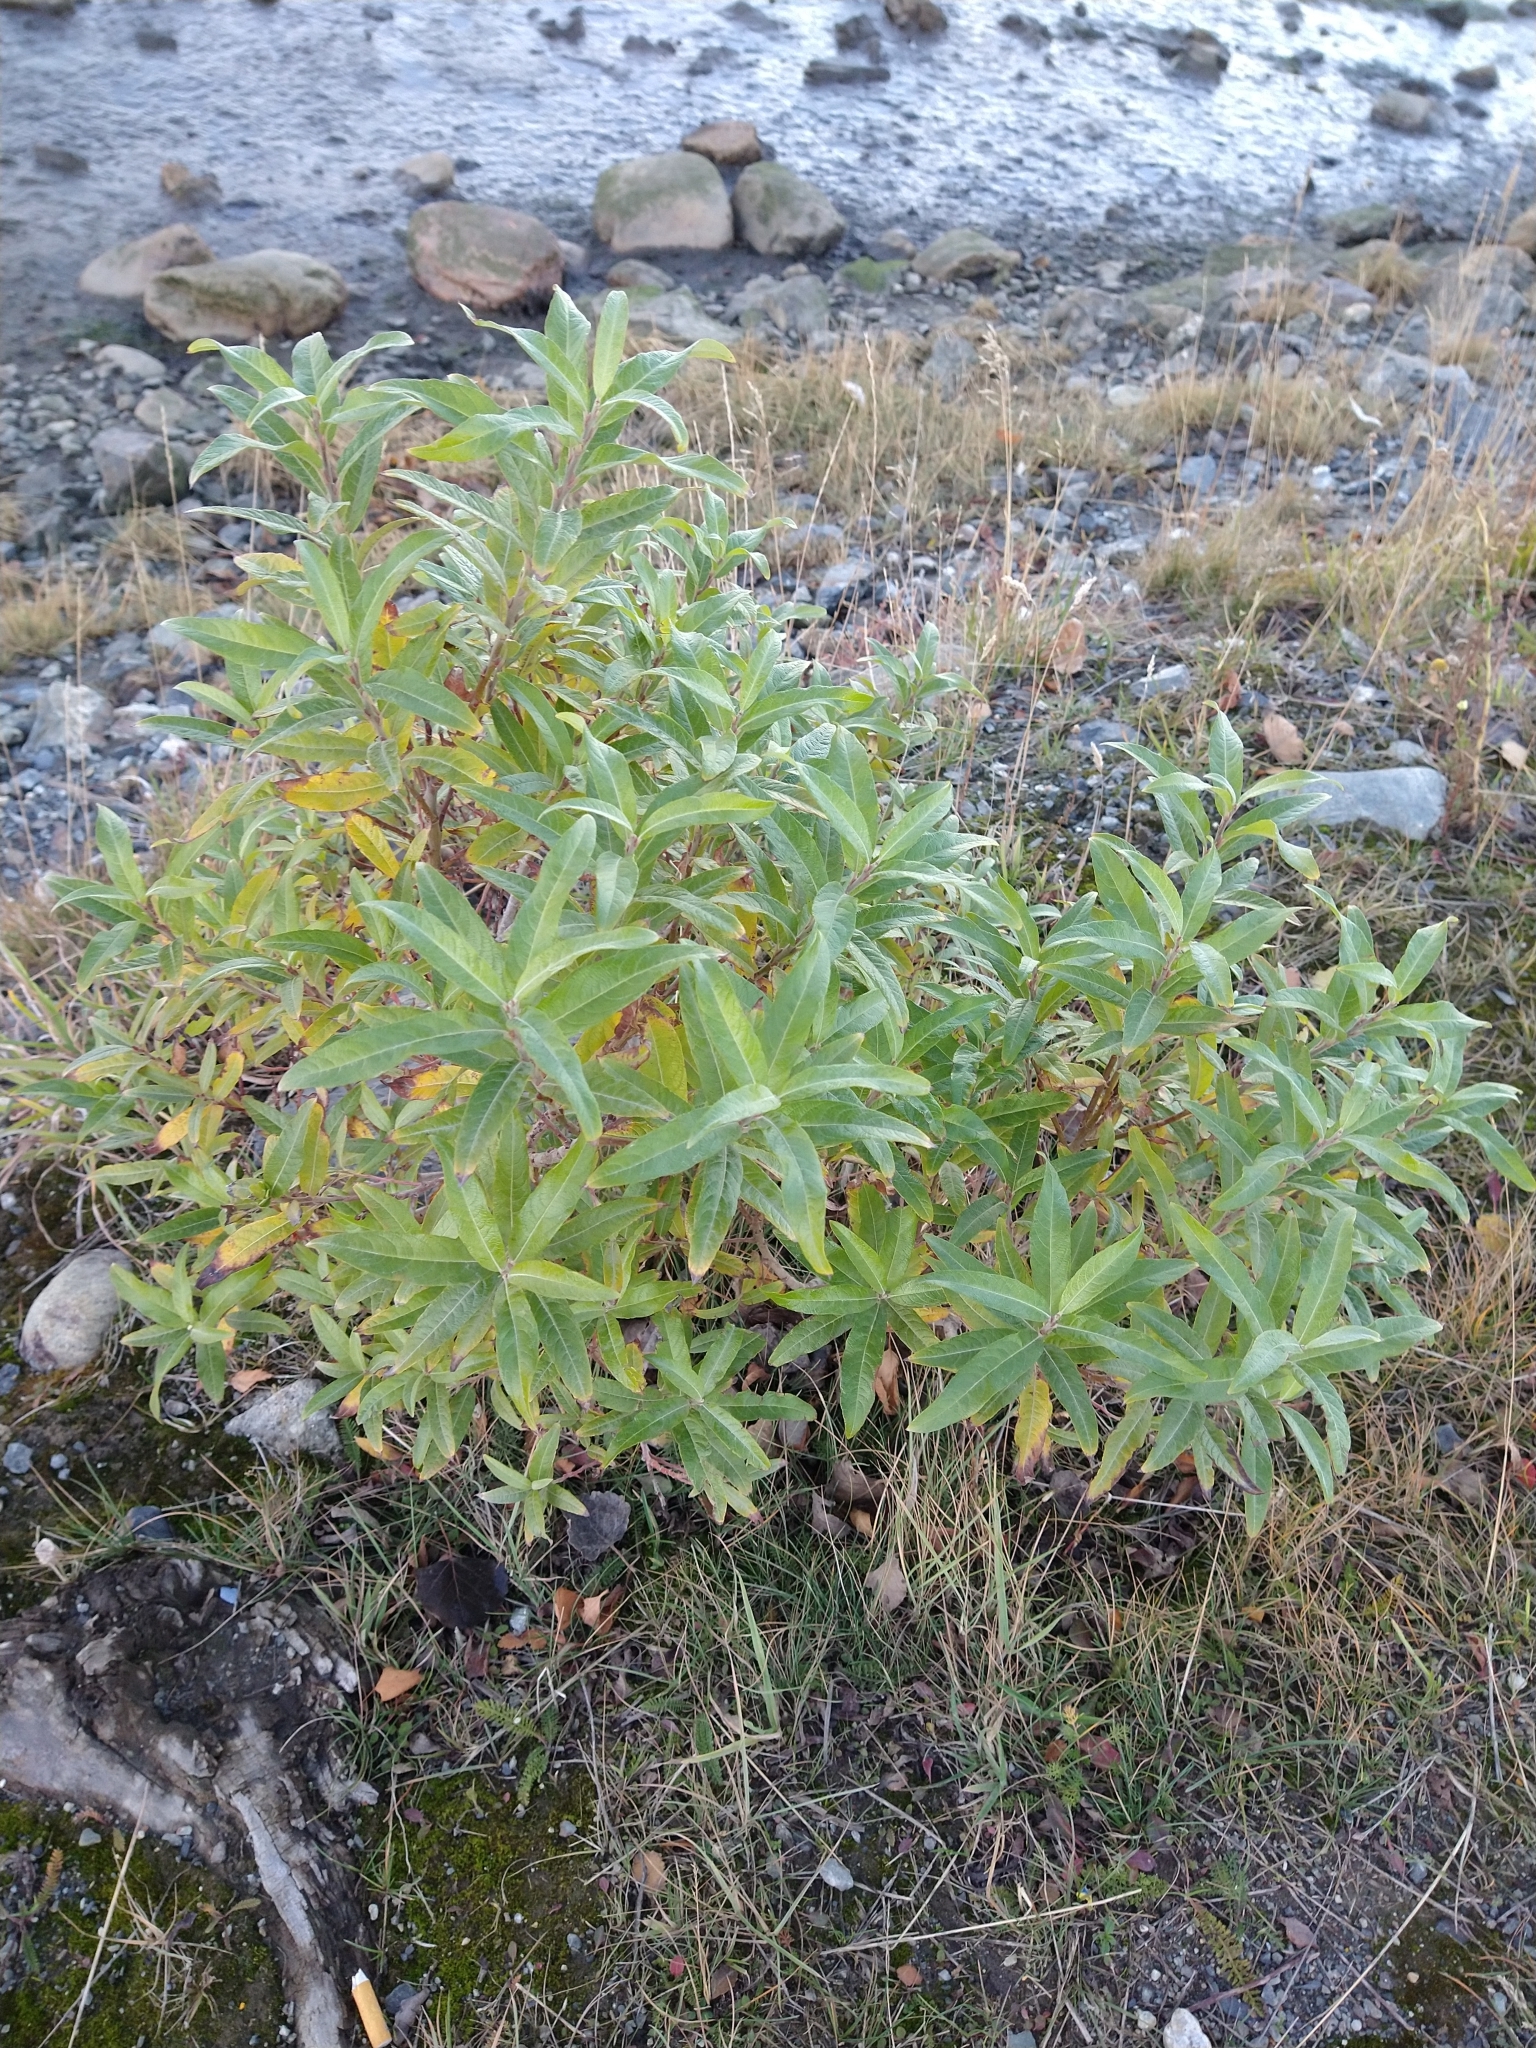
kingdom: Plantae
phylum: Tracheophyta
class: Magnoliopsida
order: Malpighiales
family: Salicaceae
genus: Salix
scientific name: Salix
